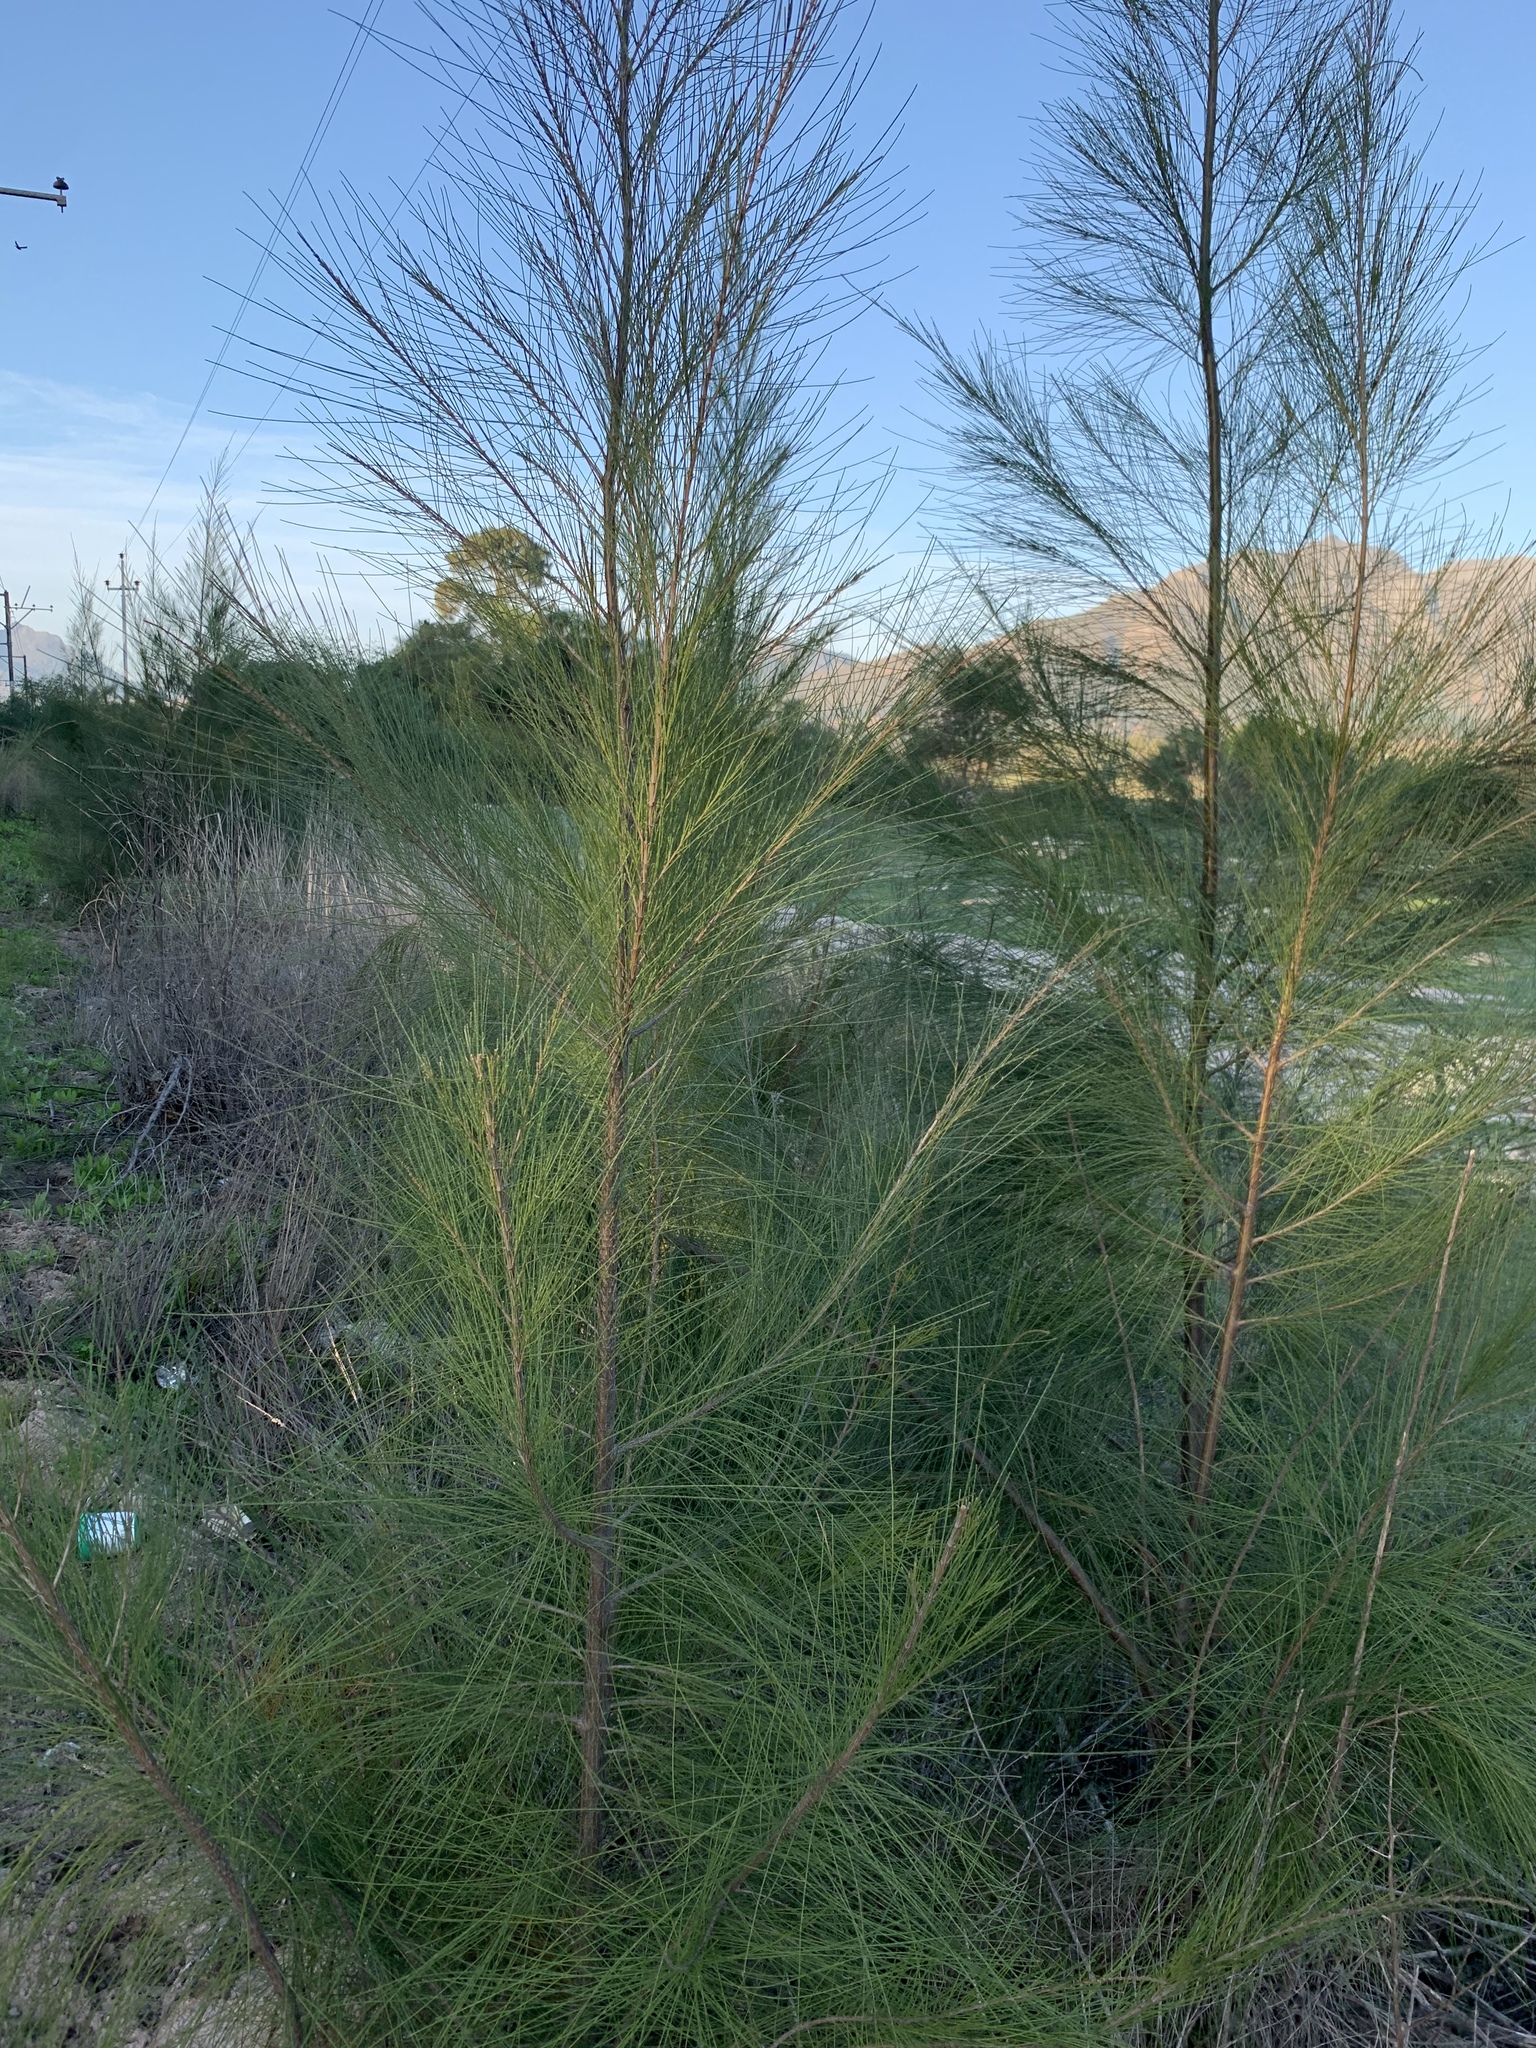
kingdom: Plantae
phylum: Tracheophyta
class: Magnoliopsida
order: Fagales
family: Casuarinaceae
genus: Casuarina
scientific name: Casuarina cunninghamiana
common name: River sheoak
